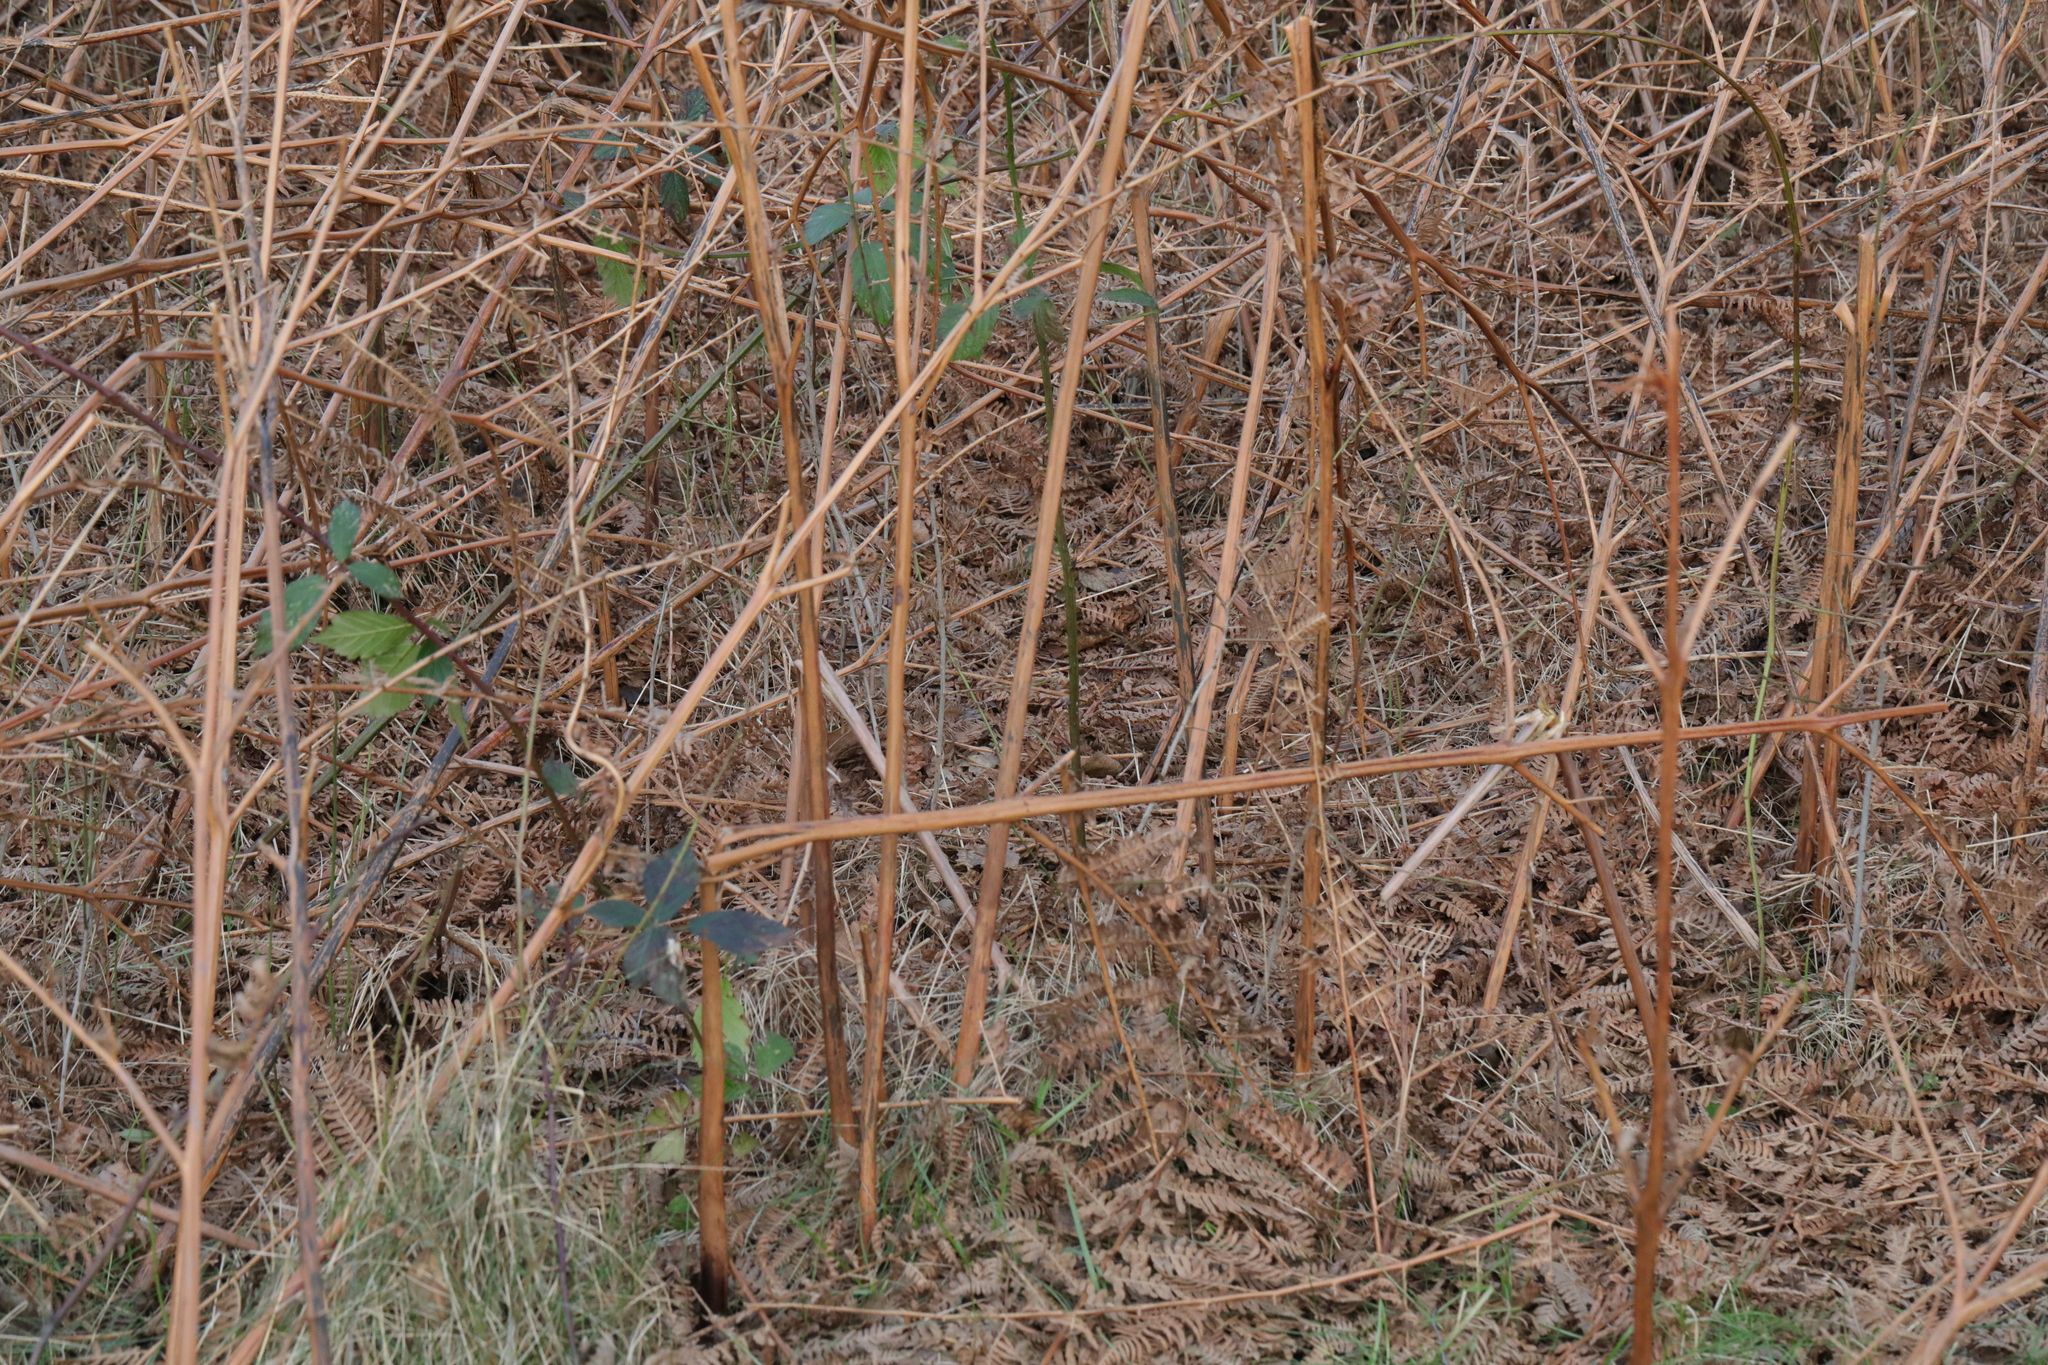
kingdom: Plantae
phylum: Tracheophyta
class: Polypodiopsida
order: Polypodiales
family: Dennstaedtiaceae
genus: Pteridium
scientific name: Pteridium aquilinum
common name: Bracken
